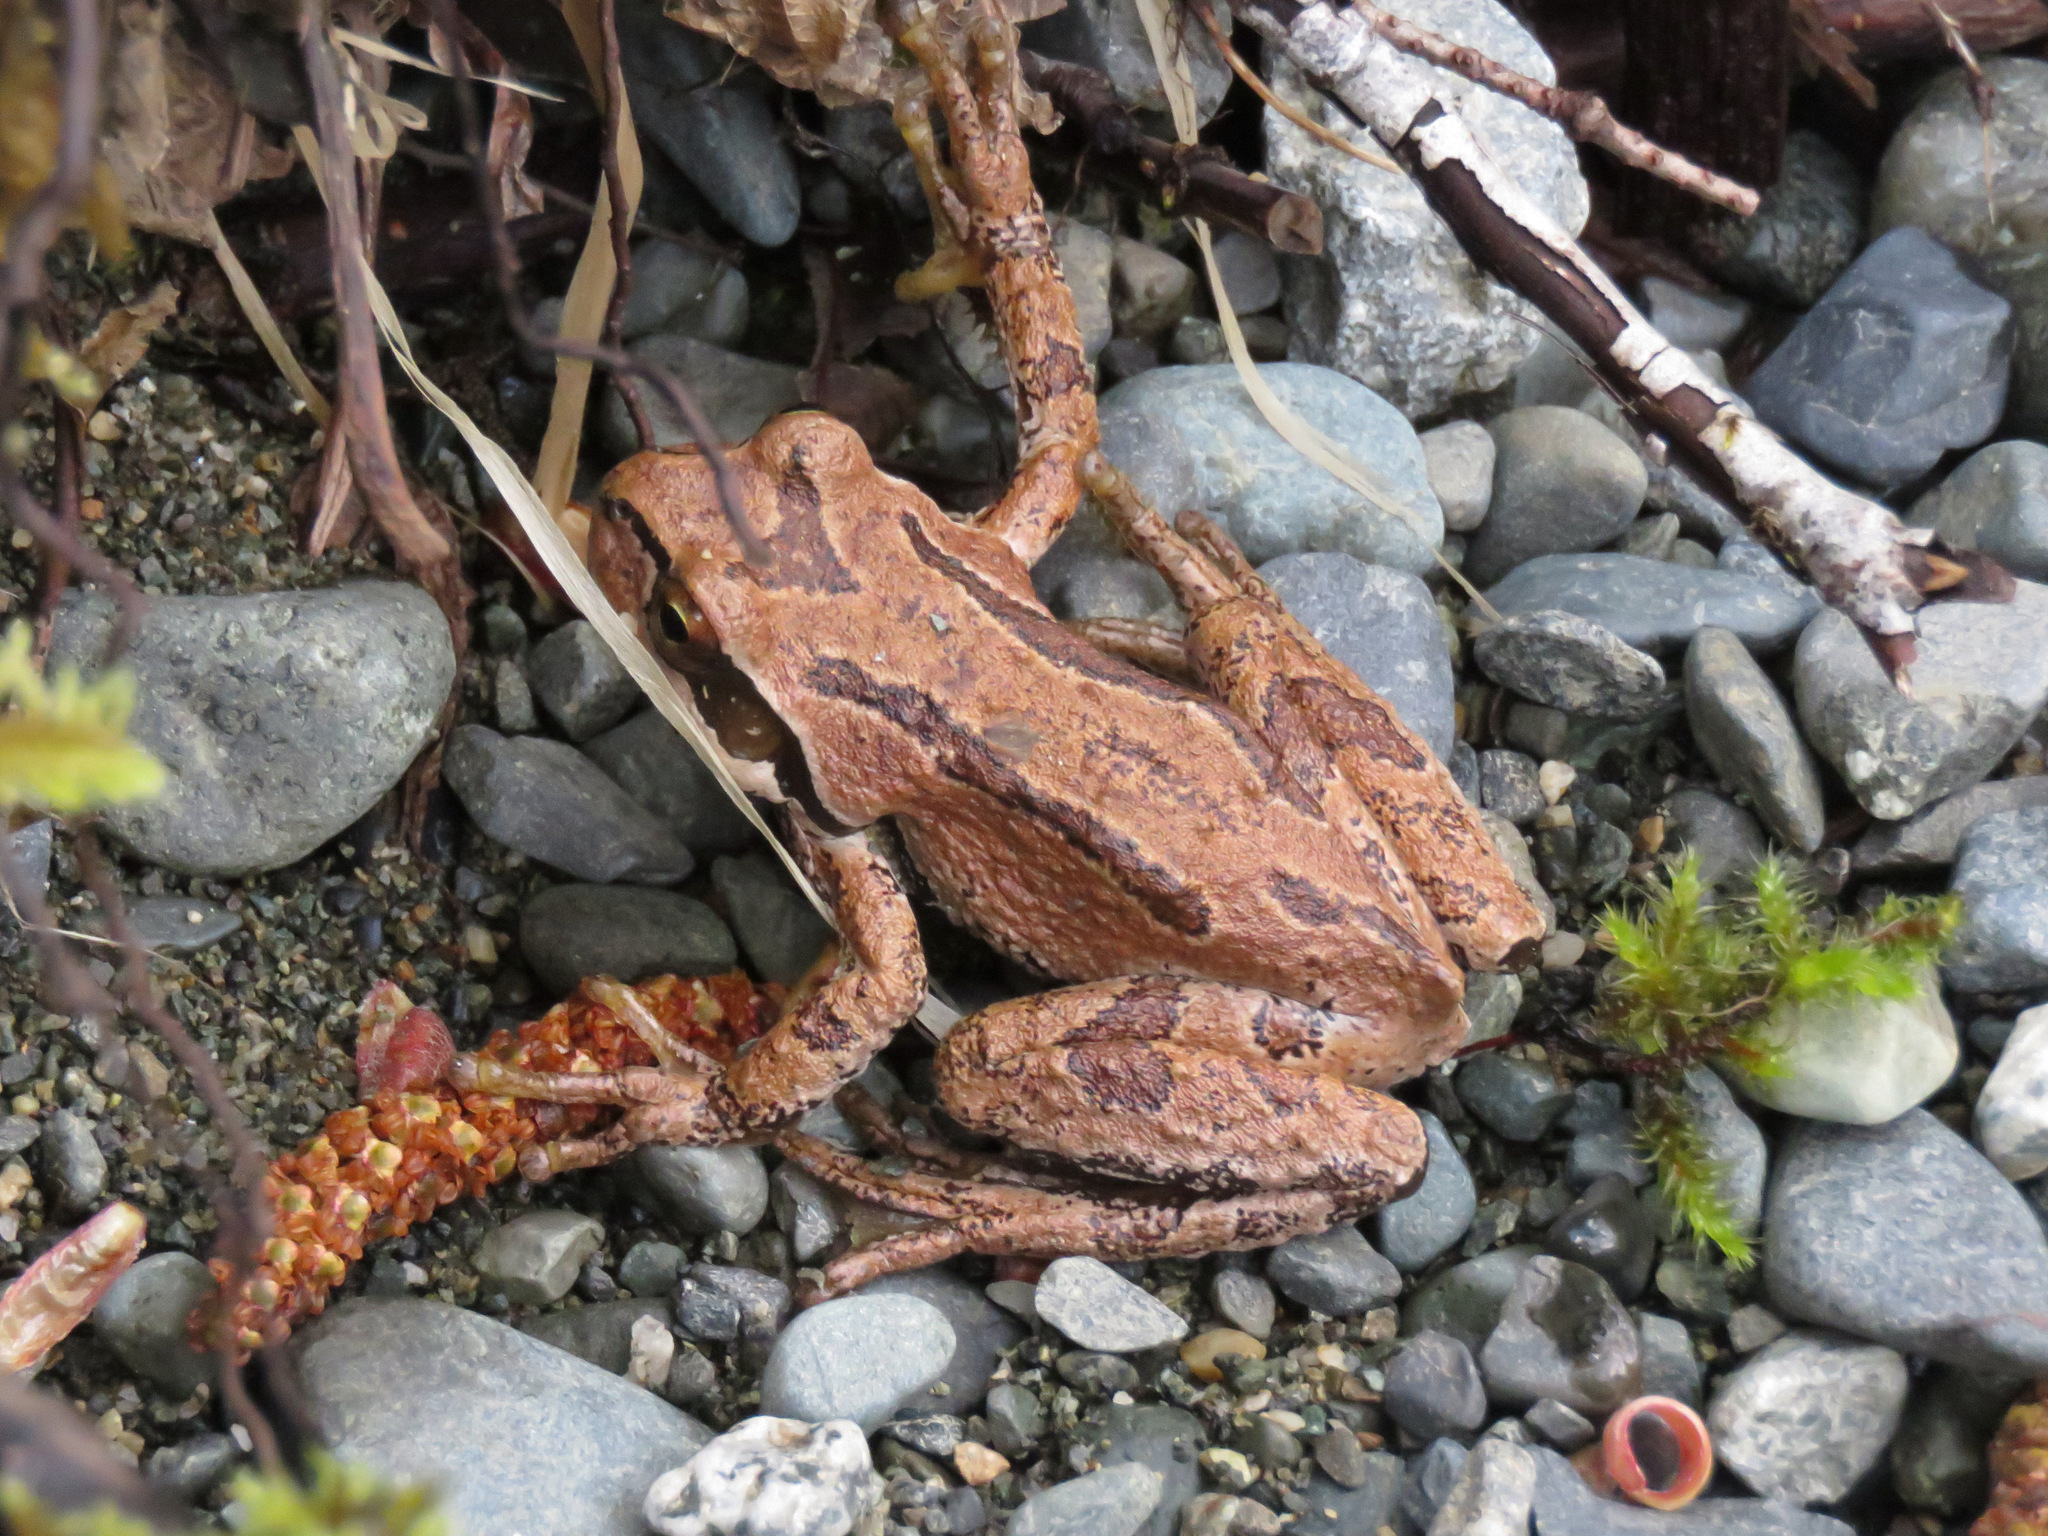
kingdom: Animalia
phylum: Chordata
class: Amphibia
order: Anura
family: Hylidae
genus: Pseudacris
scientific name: Pseudacris regilla
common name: Pacific chorus frog
